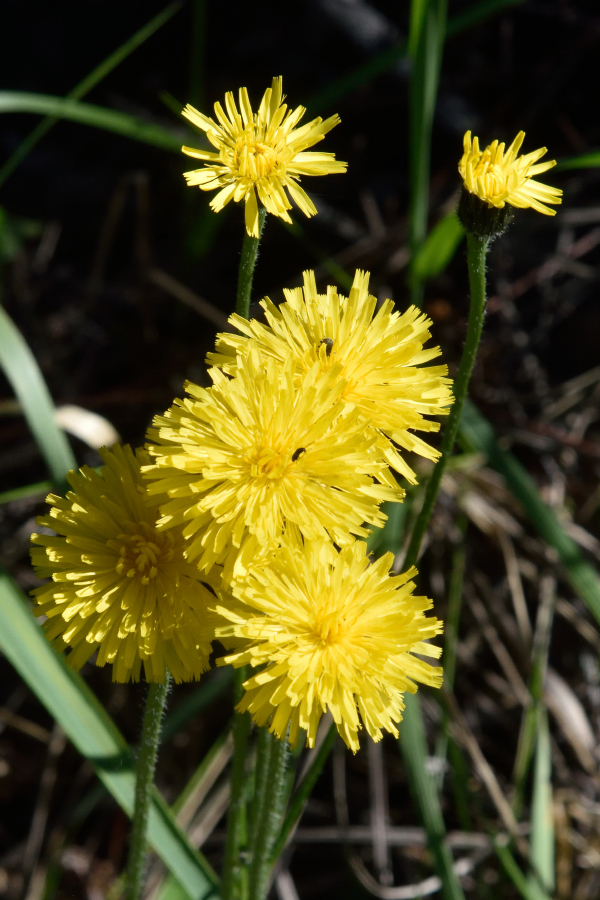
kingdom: Plantae
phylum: Tracheophyta
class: Magnoliopsida
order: Asterales
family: Asteraceae
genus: Trommsdorffia
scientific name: Trommsdorffia maculata
